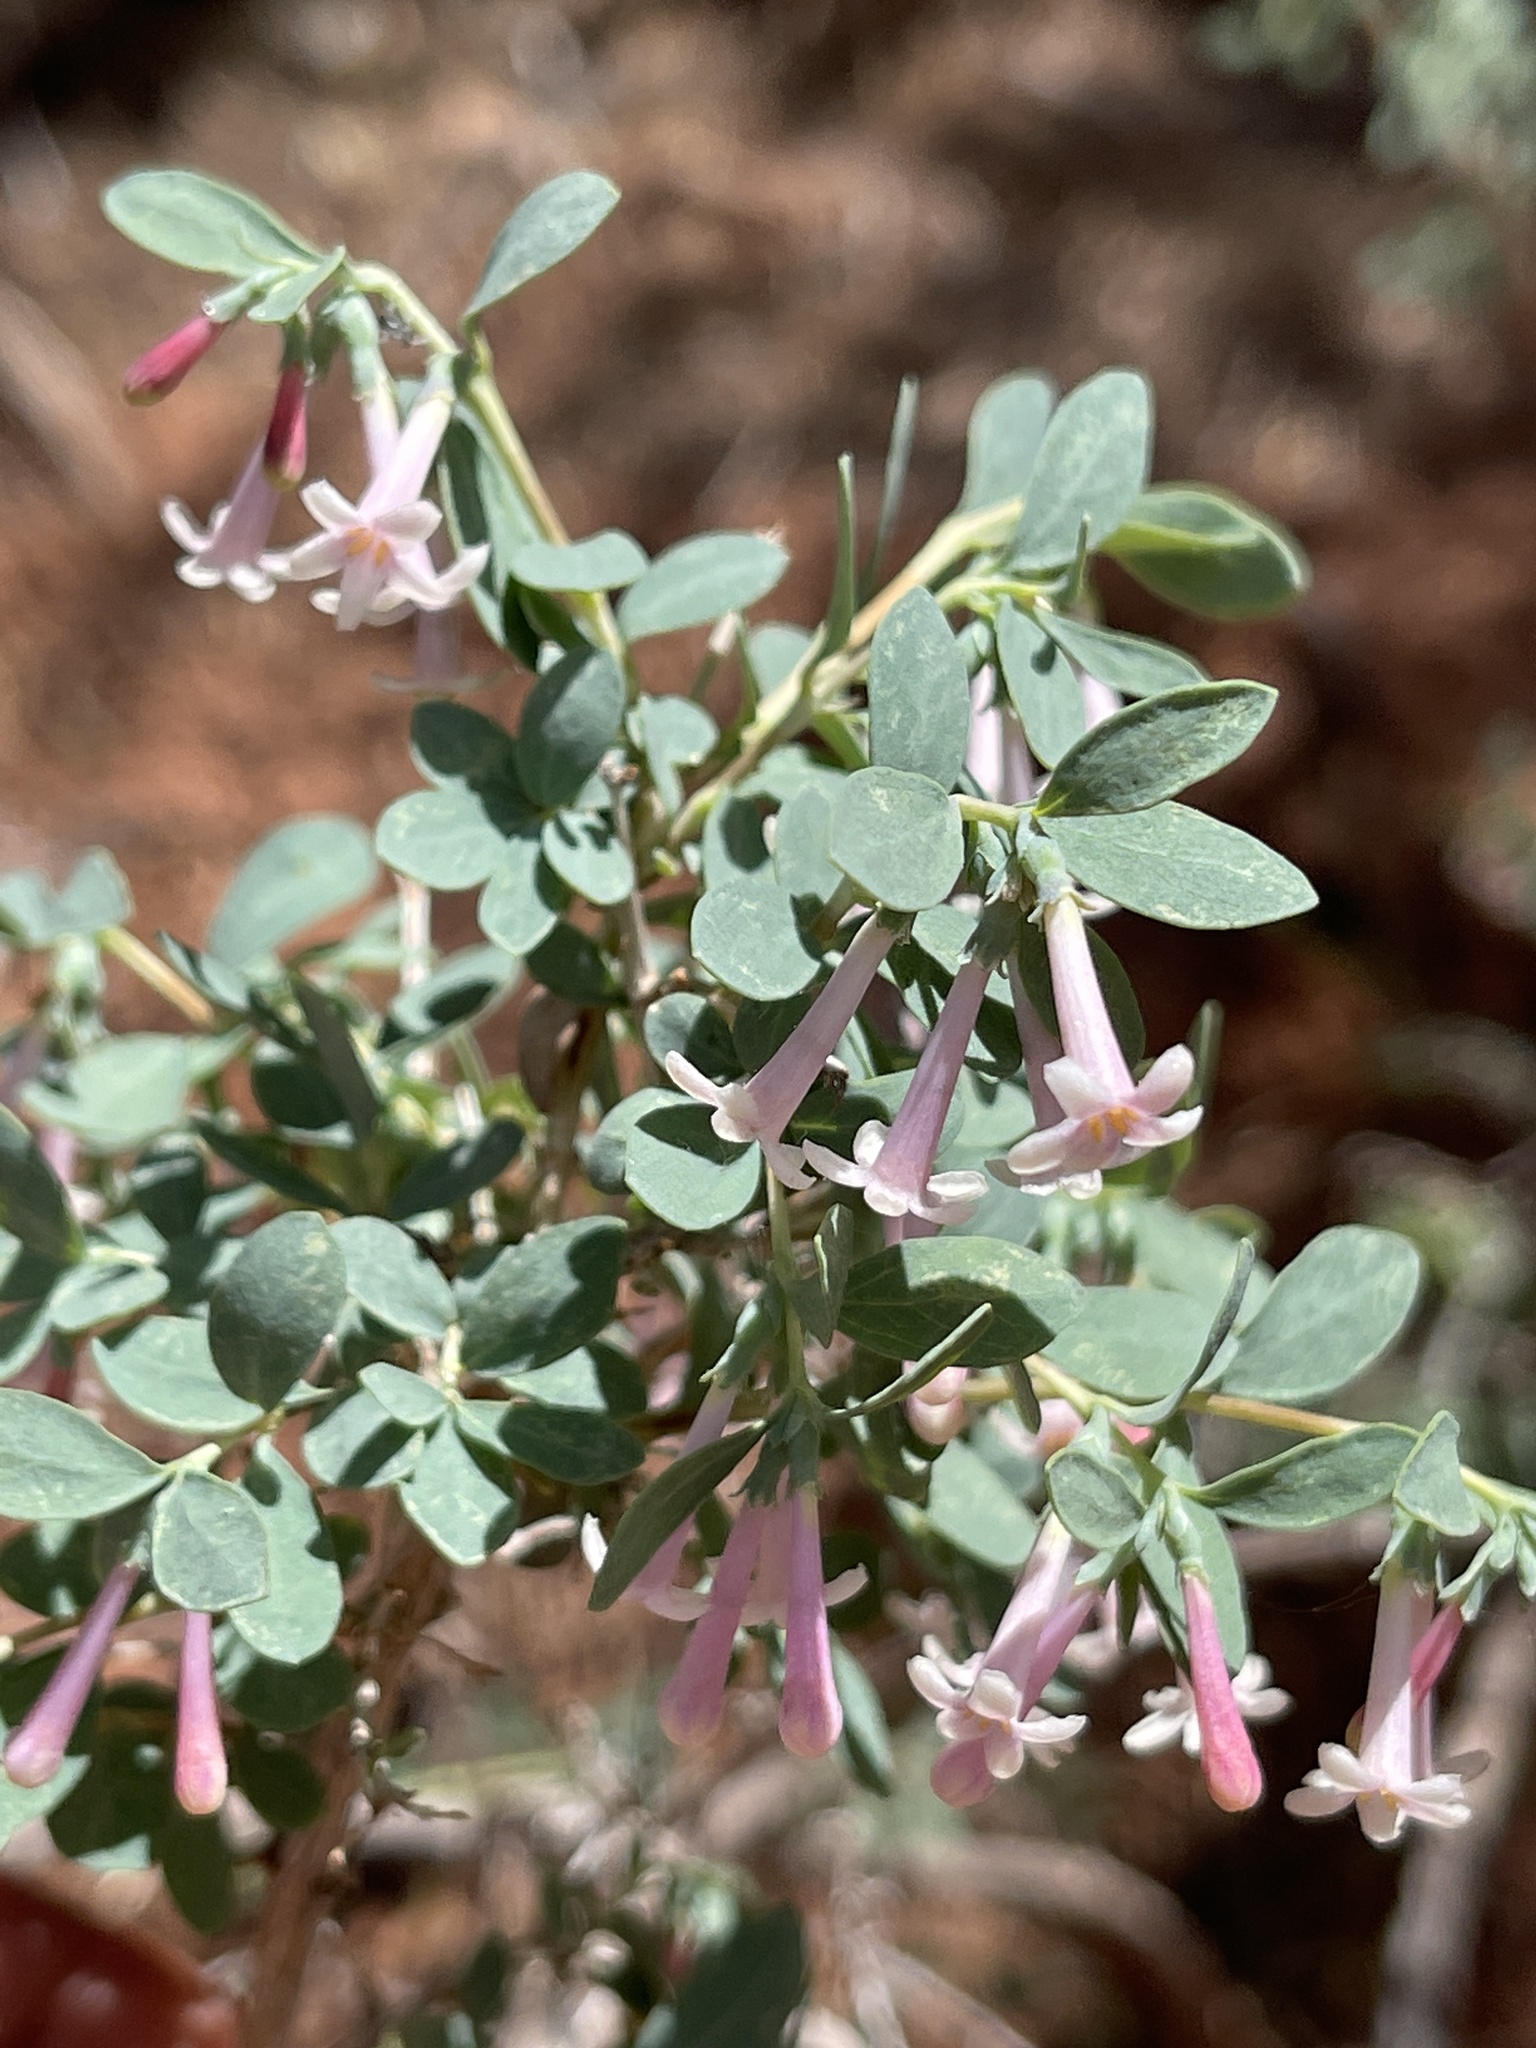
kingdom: Plantae
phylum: Tracheophyta
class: Magnoliopsida
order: Dipsacales
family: Caprifoliaceae
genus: Symphoricarpos
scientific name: Symphoricarpos longiflorus
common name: Fragrant snowberry
